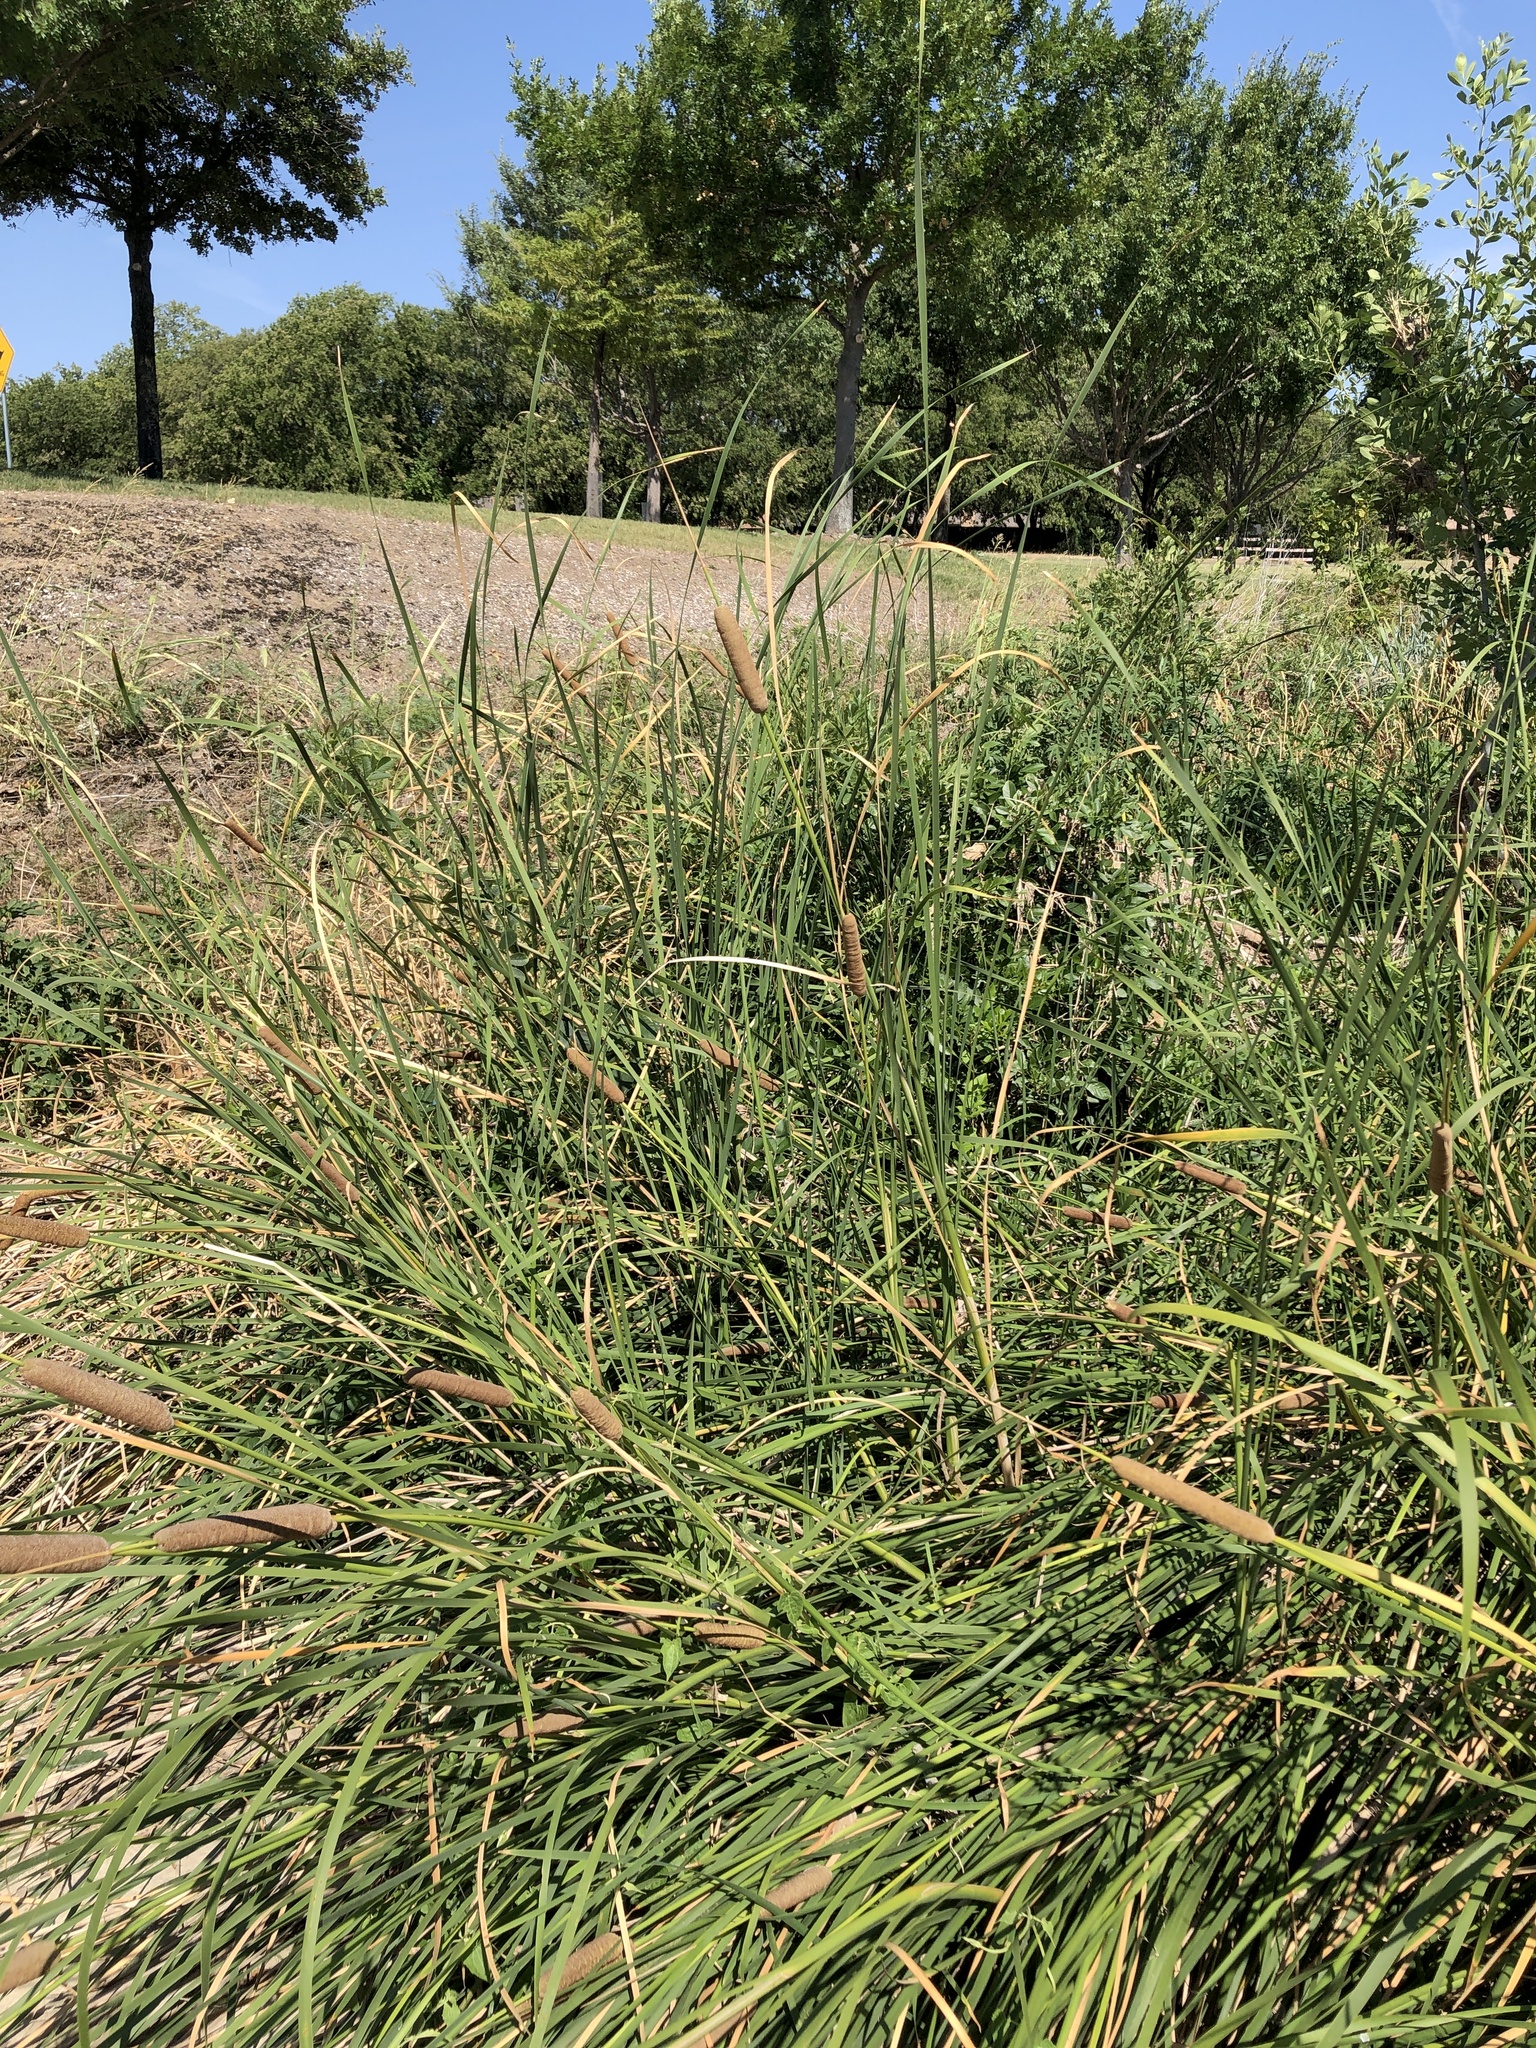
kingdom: Plantae
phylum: Tracheophyta
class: Liliopsida
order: Poales
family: Typhaceae
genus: Typha
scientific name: Typha domingensis
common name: Southern cattail
